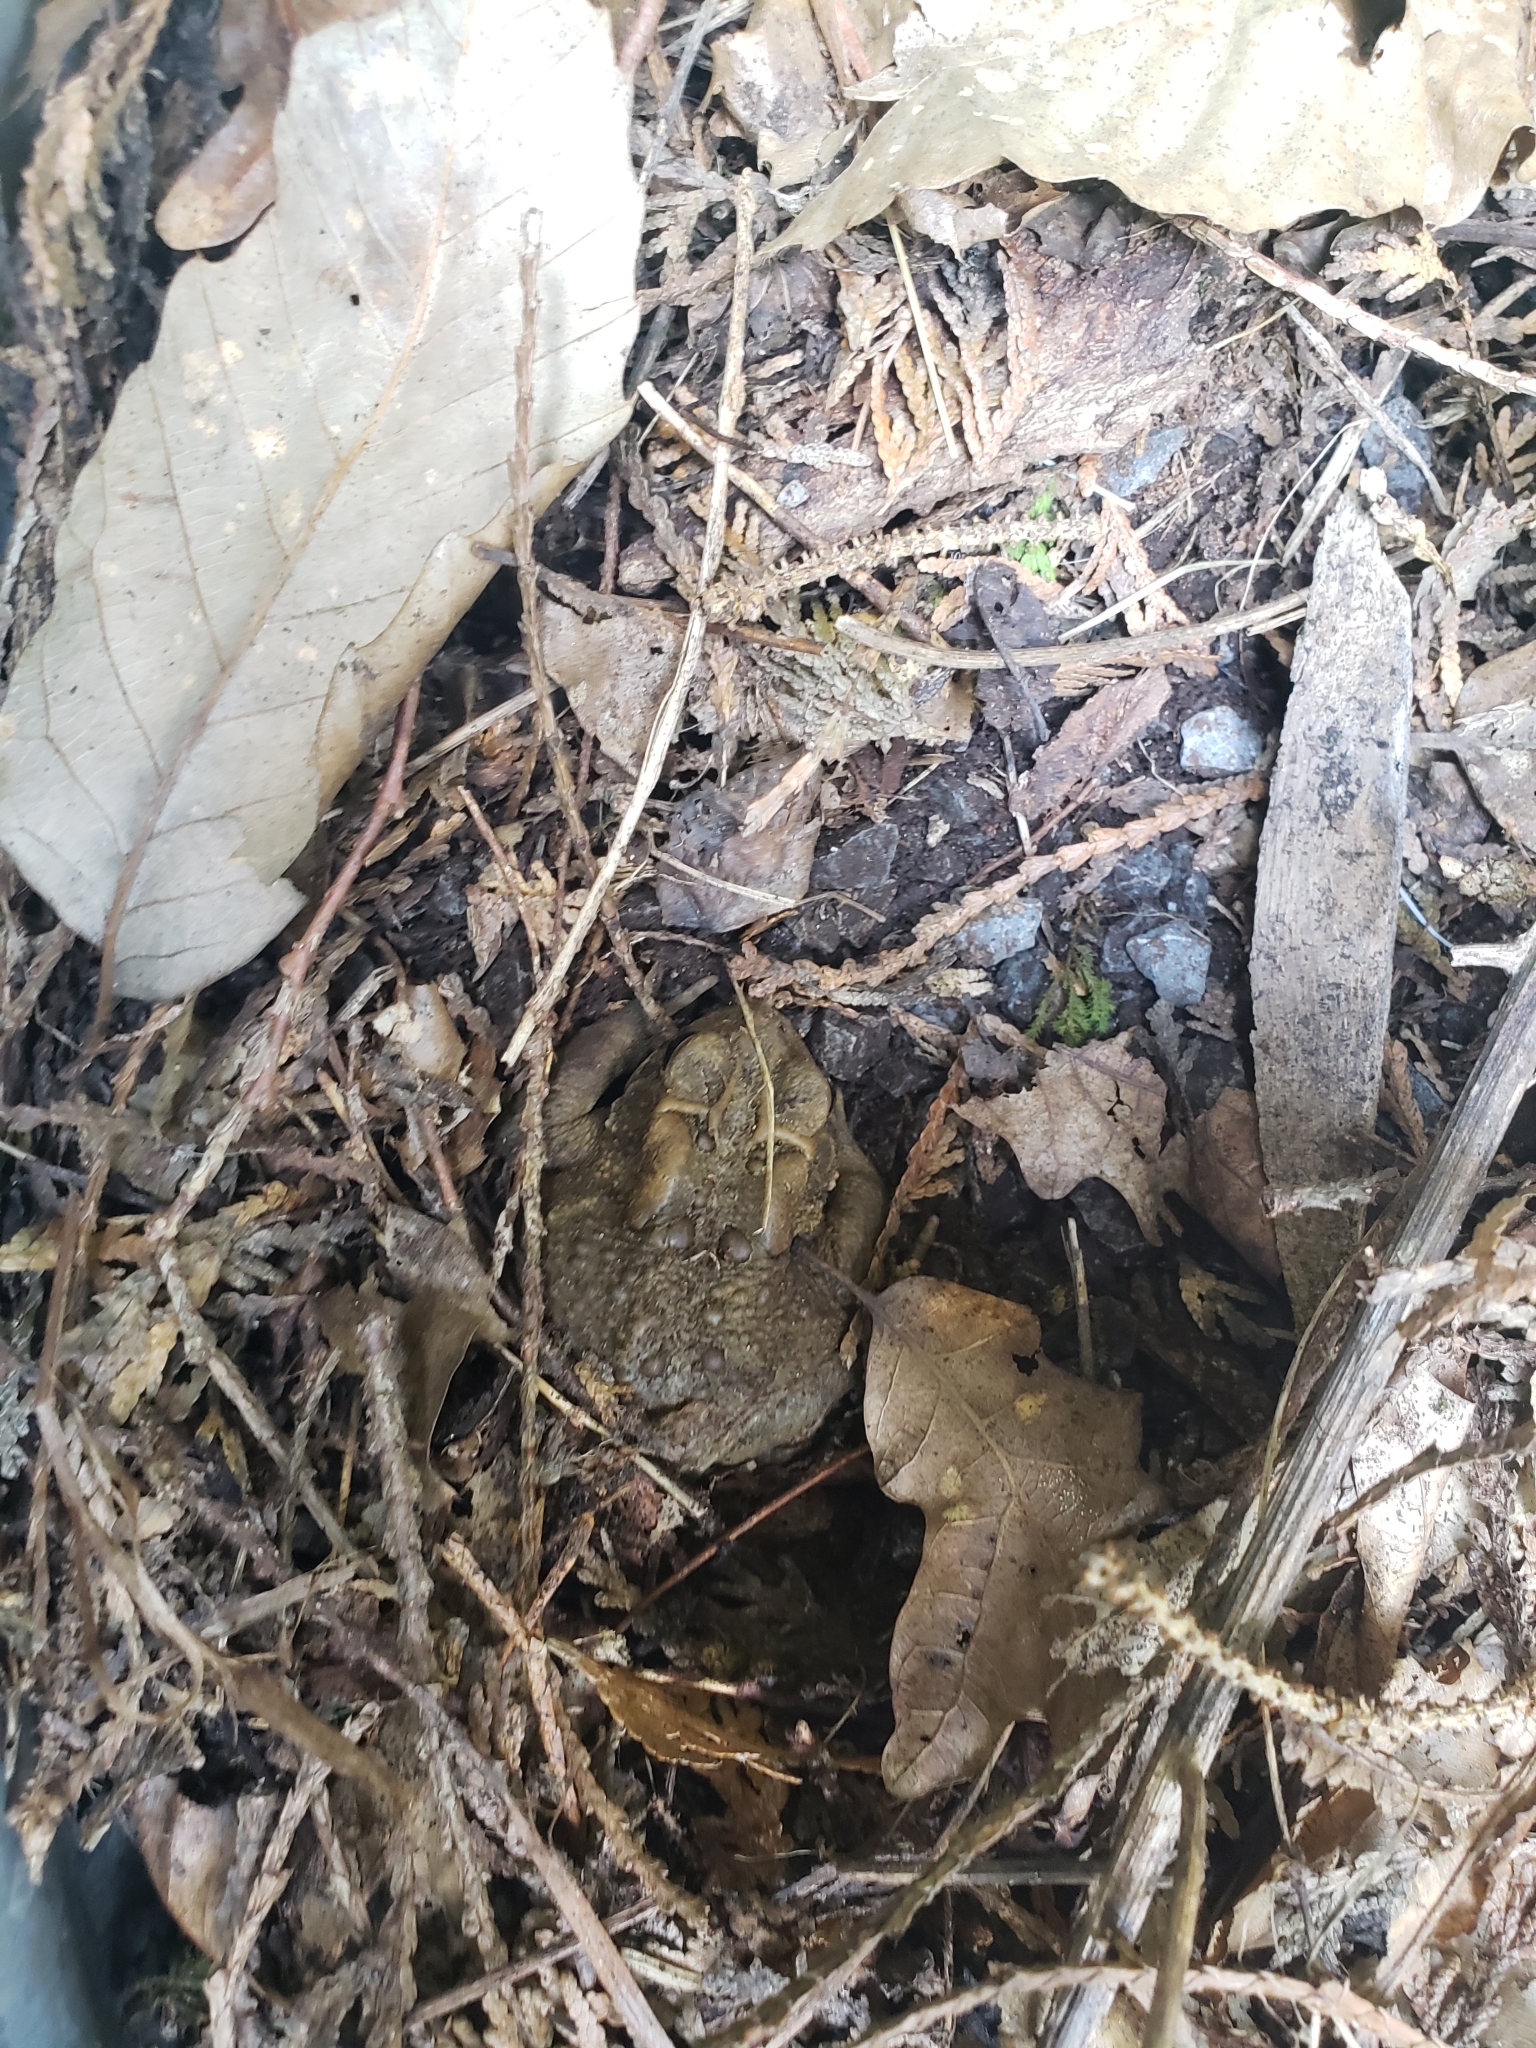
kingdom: Animalia
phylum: Chordata
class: Amphibia
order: Anura
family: Bufonidae
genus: Anaxyrus
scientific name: Anaxyrus americanus
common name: American toad
